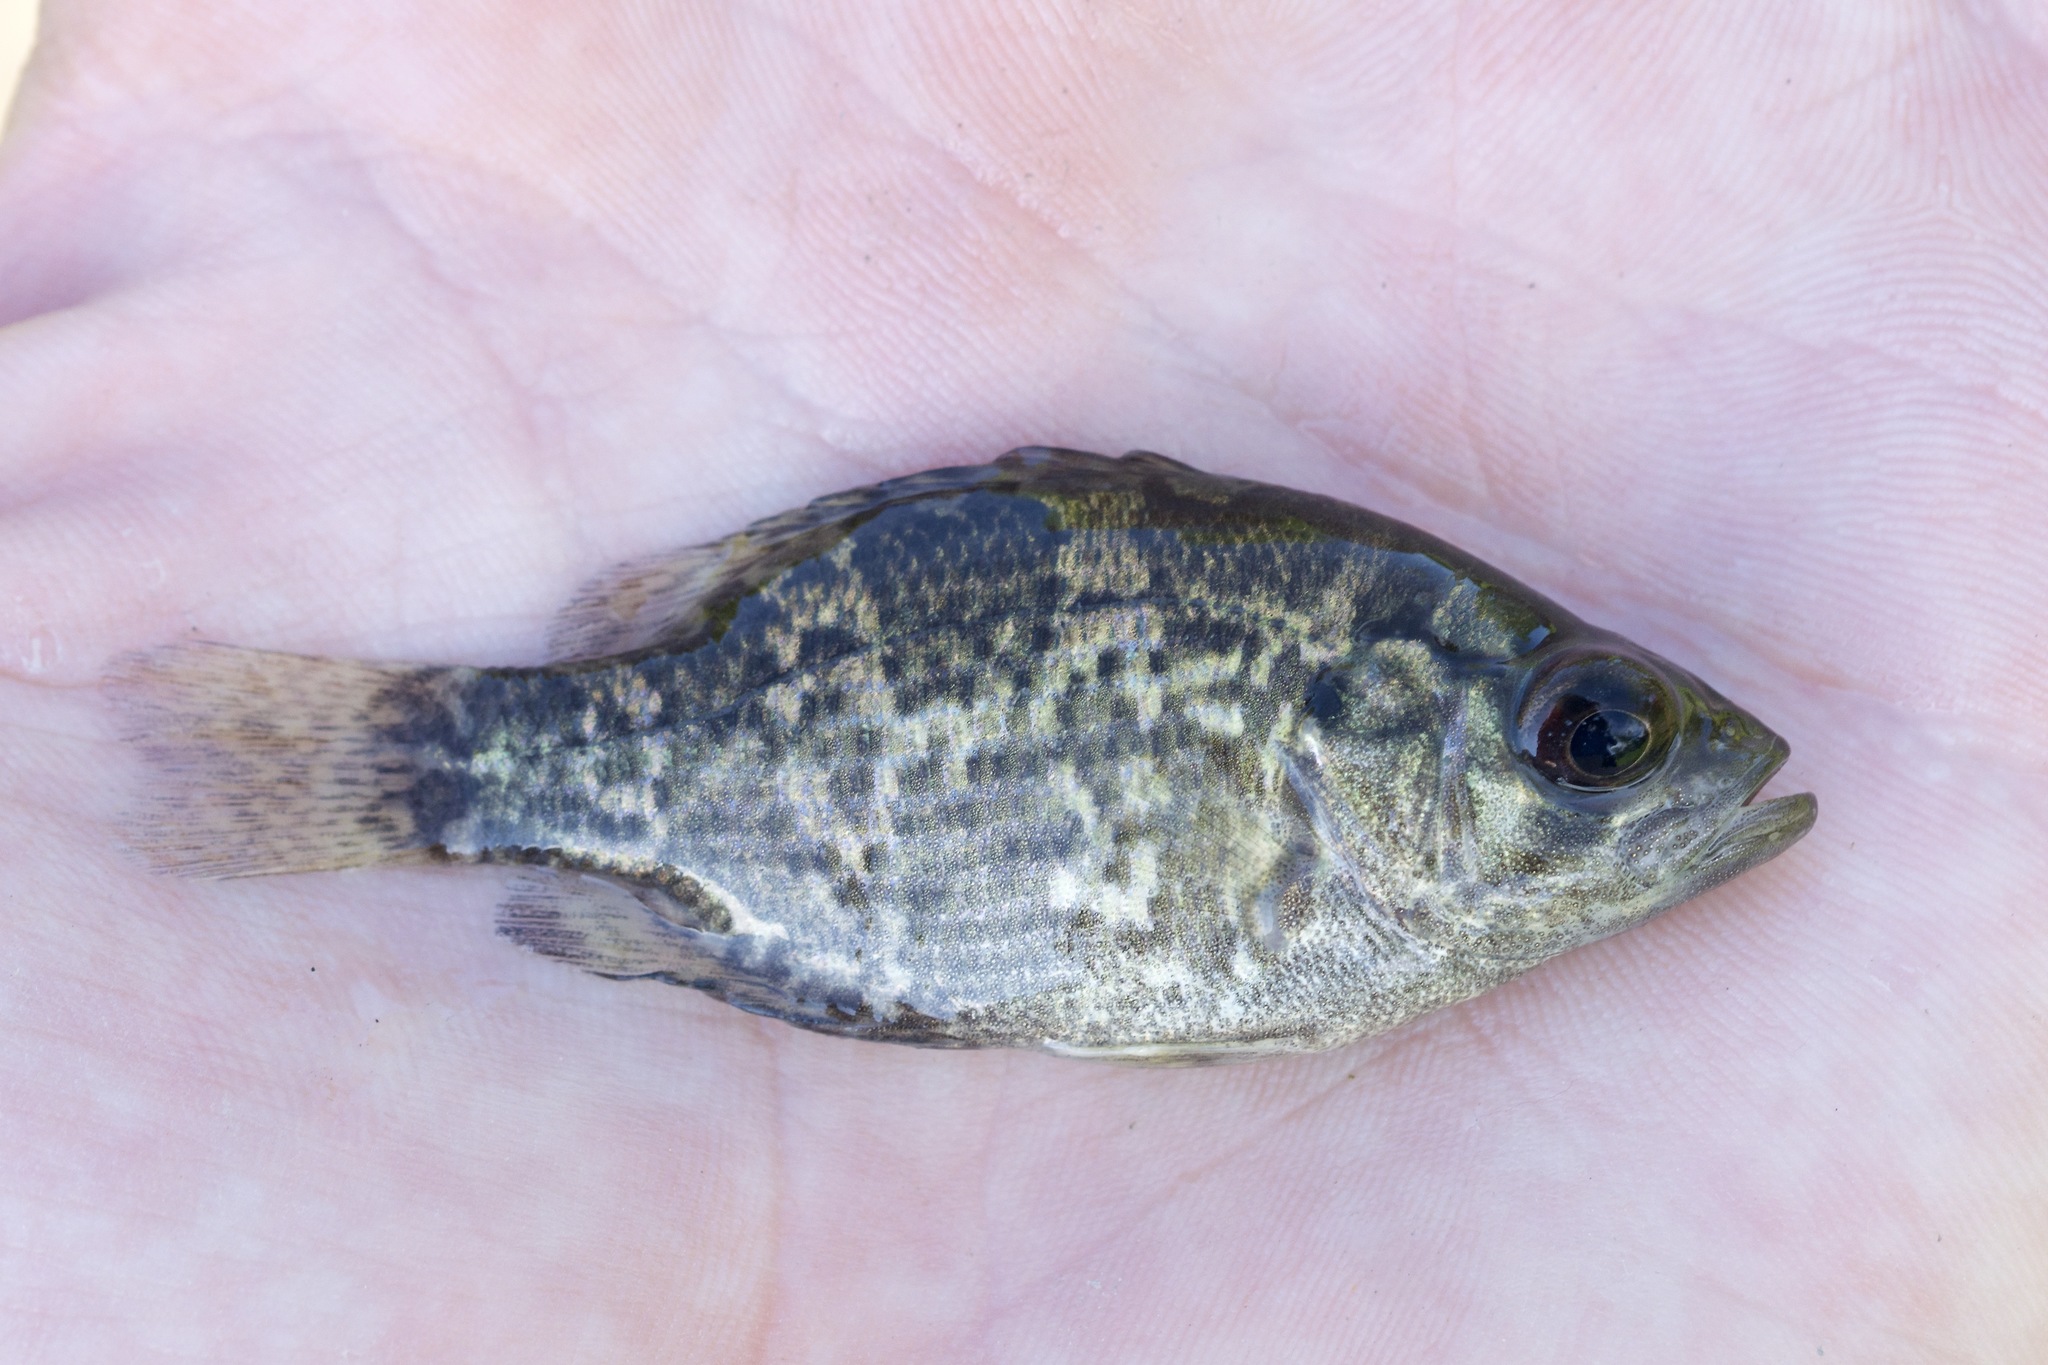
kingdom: Animalia
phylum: Chordata
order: Perciformes
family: Centrarchidae
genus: Ambloplites
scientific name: Ambloplites rupestris
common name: Rock bass
